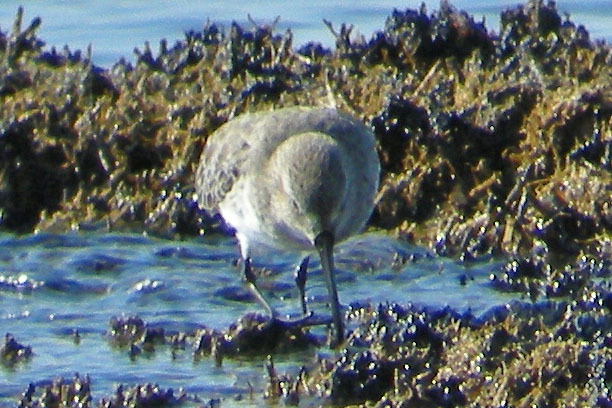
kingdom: Animalia
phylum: Chordata
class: Aves
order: Charadriiformes
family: Scolopacidae
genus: Calidris
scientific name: Calidris alpina
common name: Dunlin
